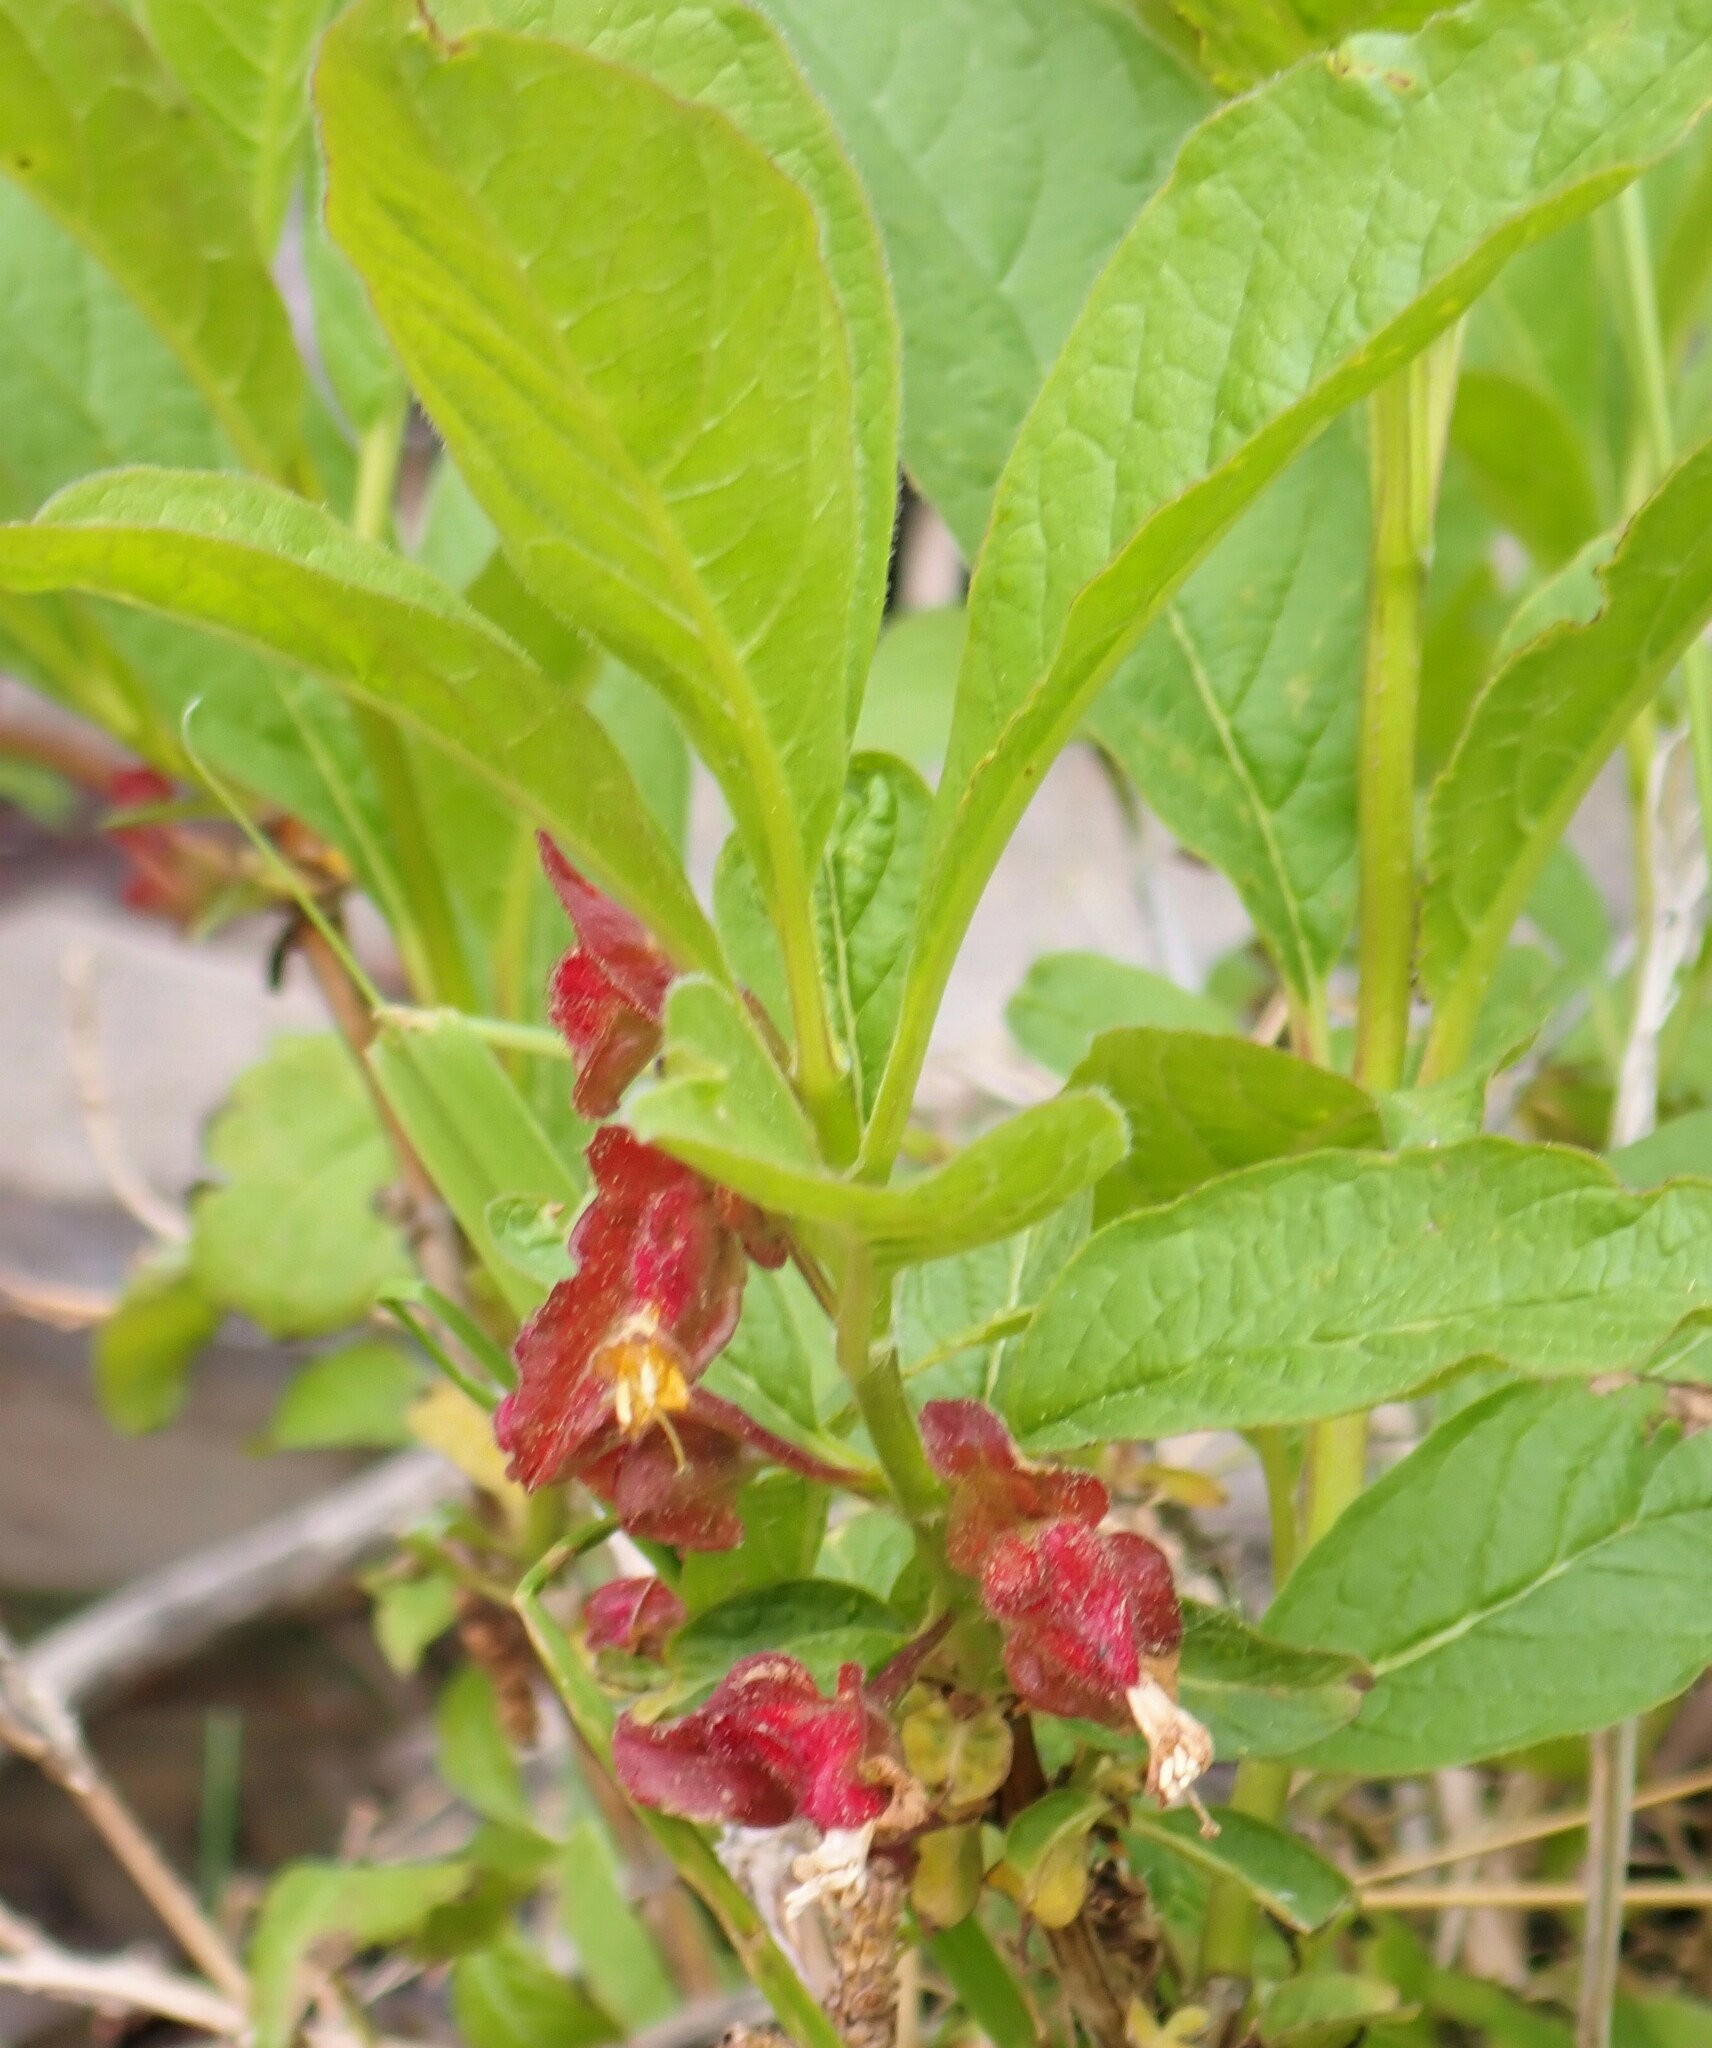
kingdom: Plantae
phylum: Tracheophyta
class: Magnoliopsida
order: Dipsacales
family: Caprifoliaceae
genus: Lonicera
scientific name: Lonicera involucrata
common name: Californian honeysuckle
